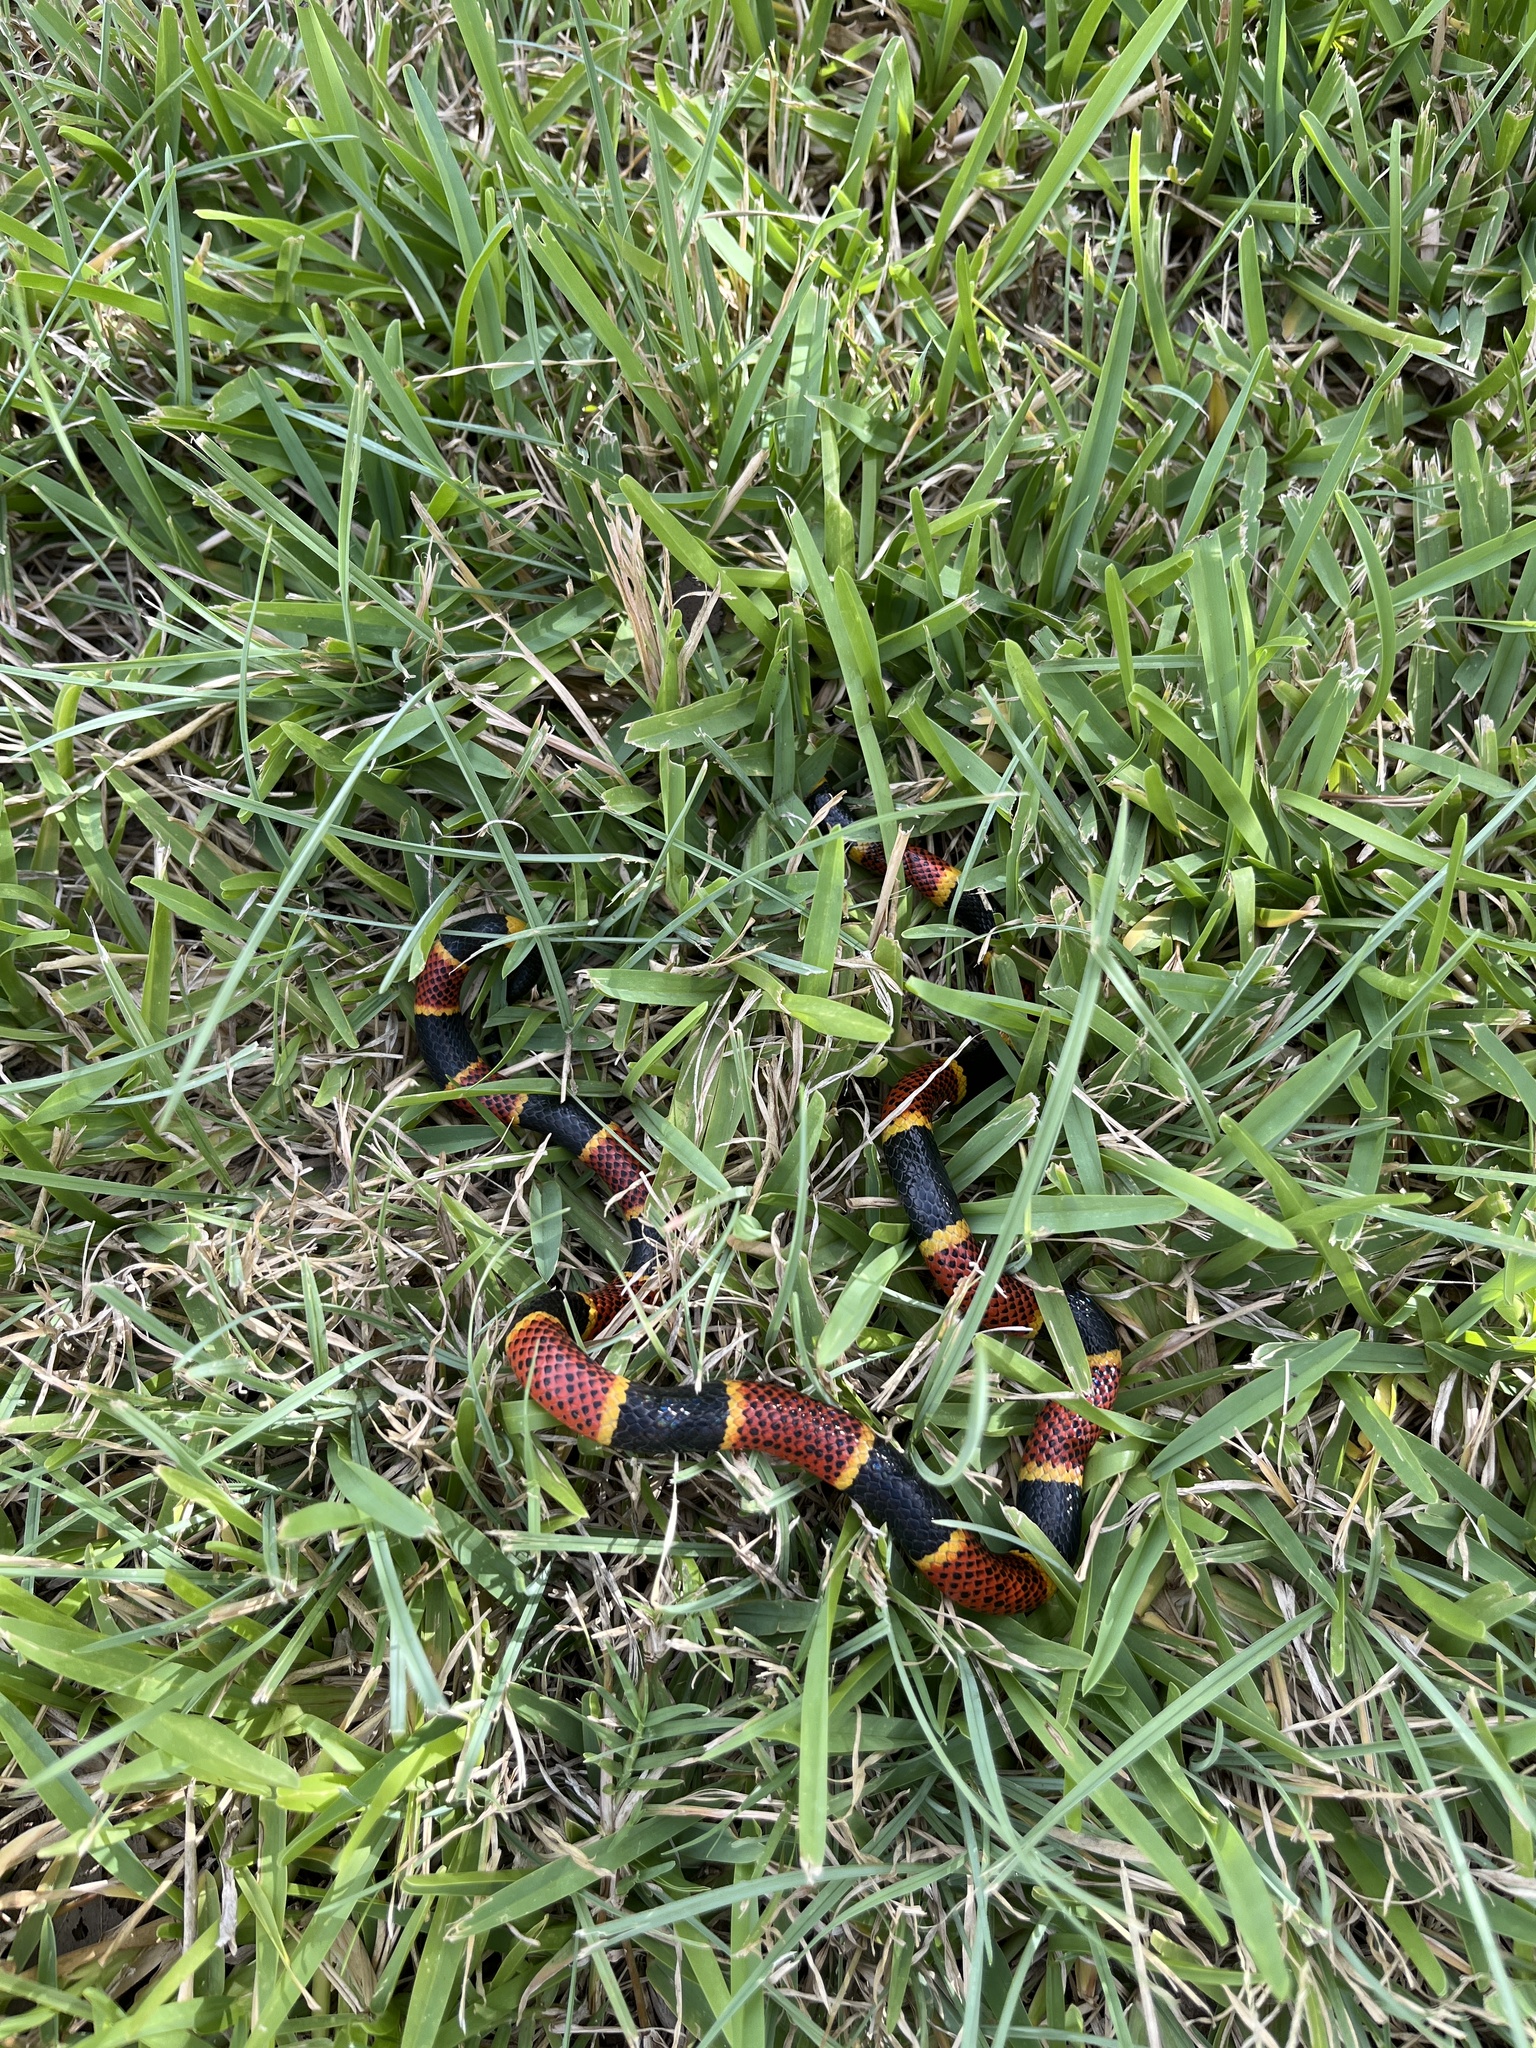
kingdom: Animalia
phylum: Chordata
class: Squamata
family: Elapidae
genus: Micrurus
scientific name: Micrurus tener
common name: Texas coral snake
